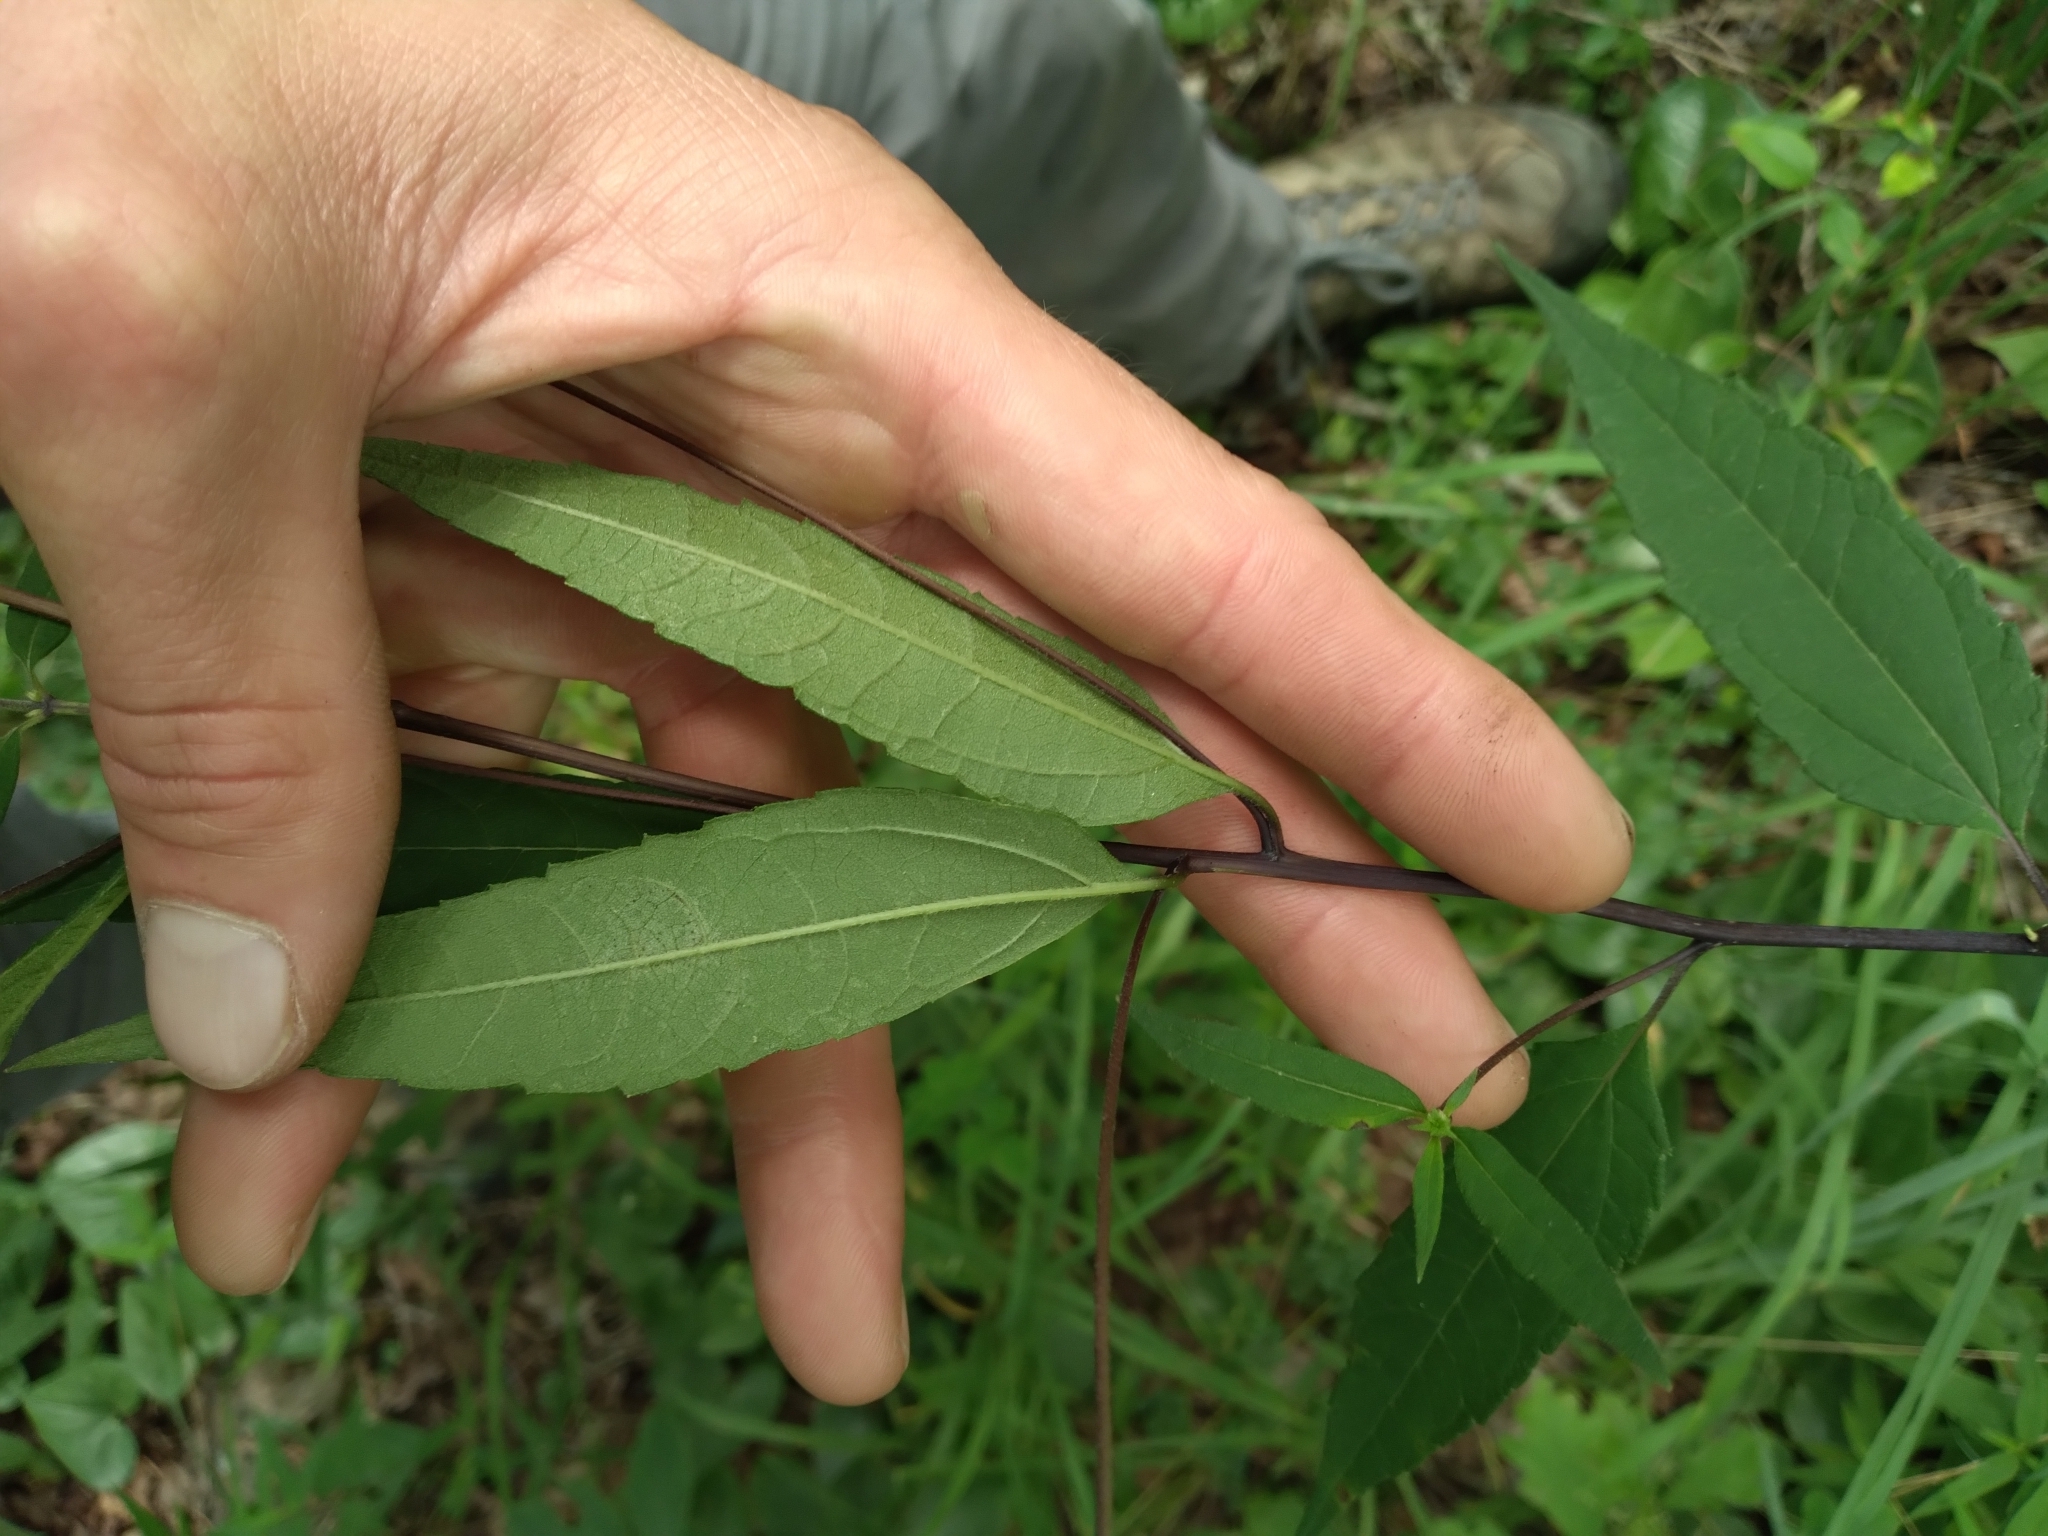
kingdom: Plantae
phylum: Tracheophyta
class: Magnoliopsida
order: Asterales
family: Asteraceae
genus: Helianthus
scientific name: Helianthus microcephalus
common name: Woodland sunflower
